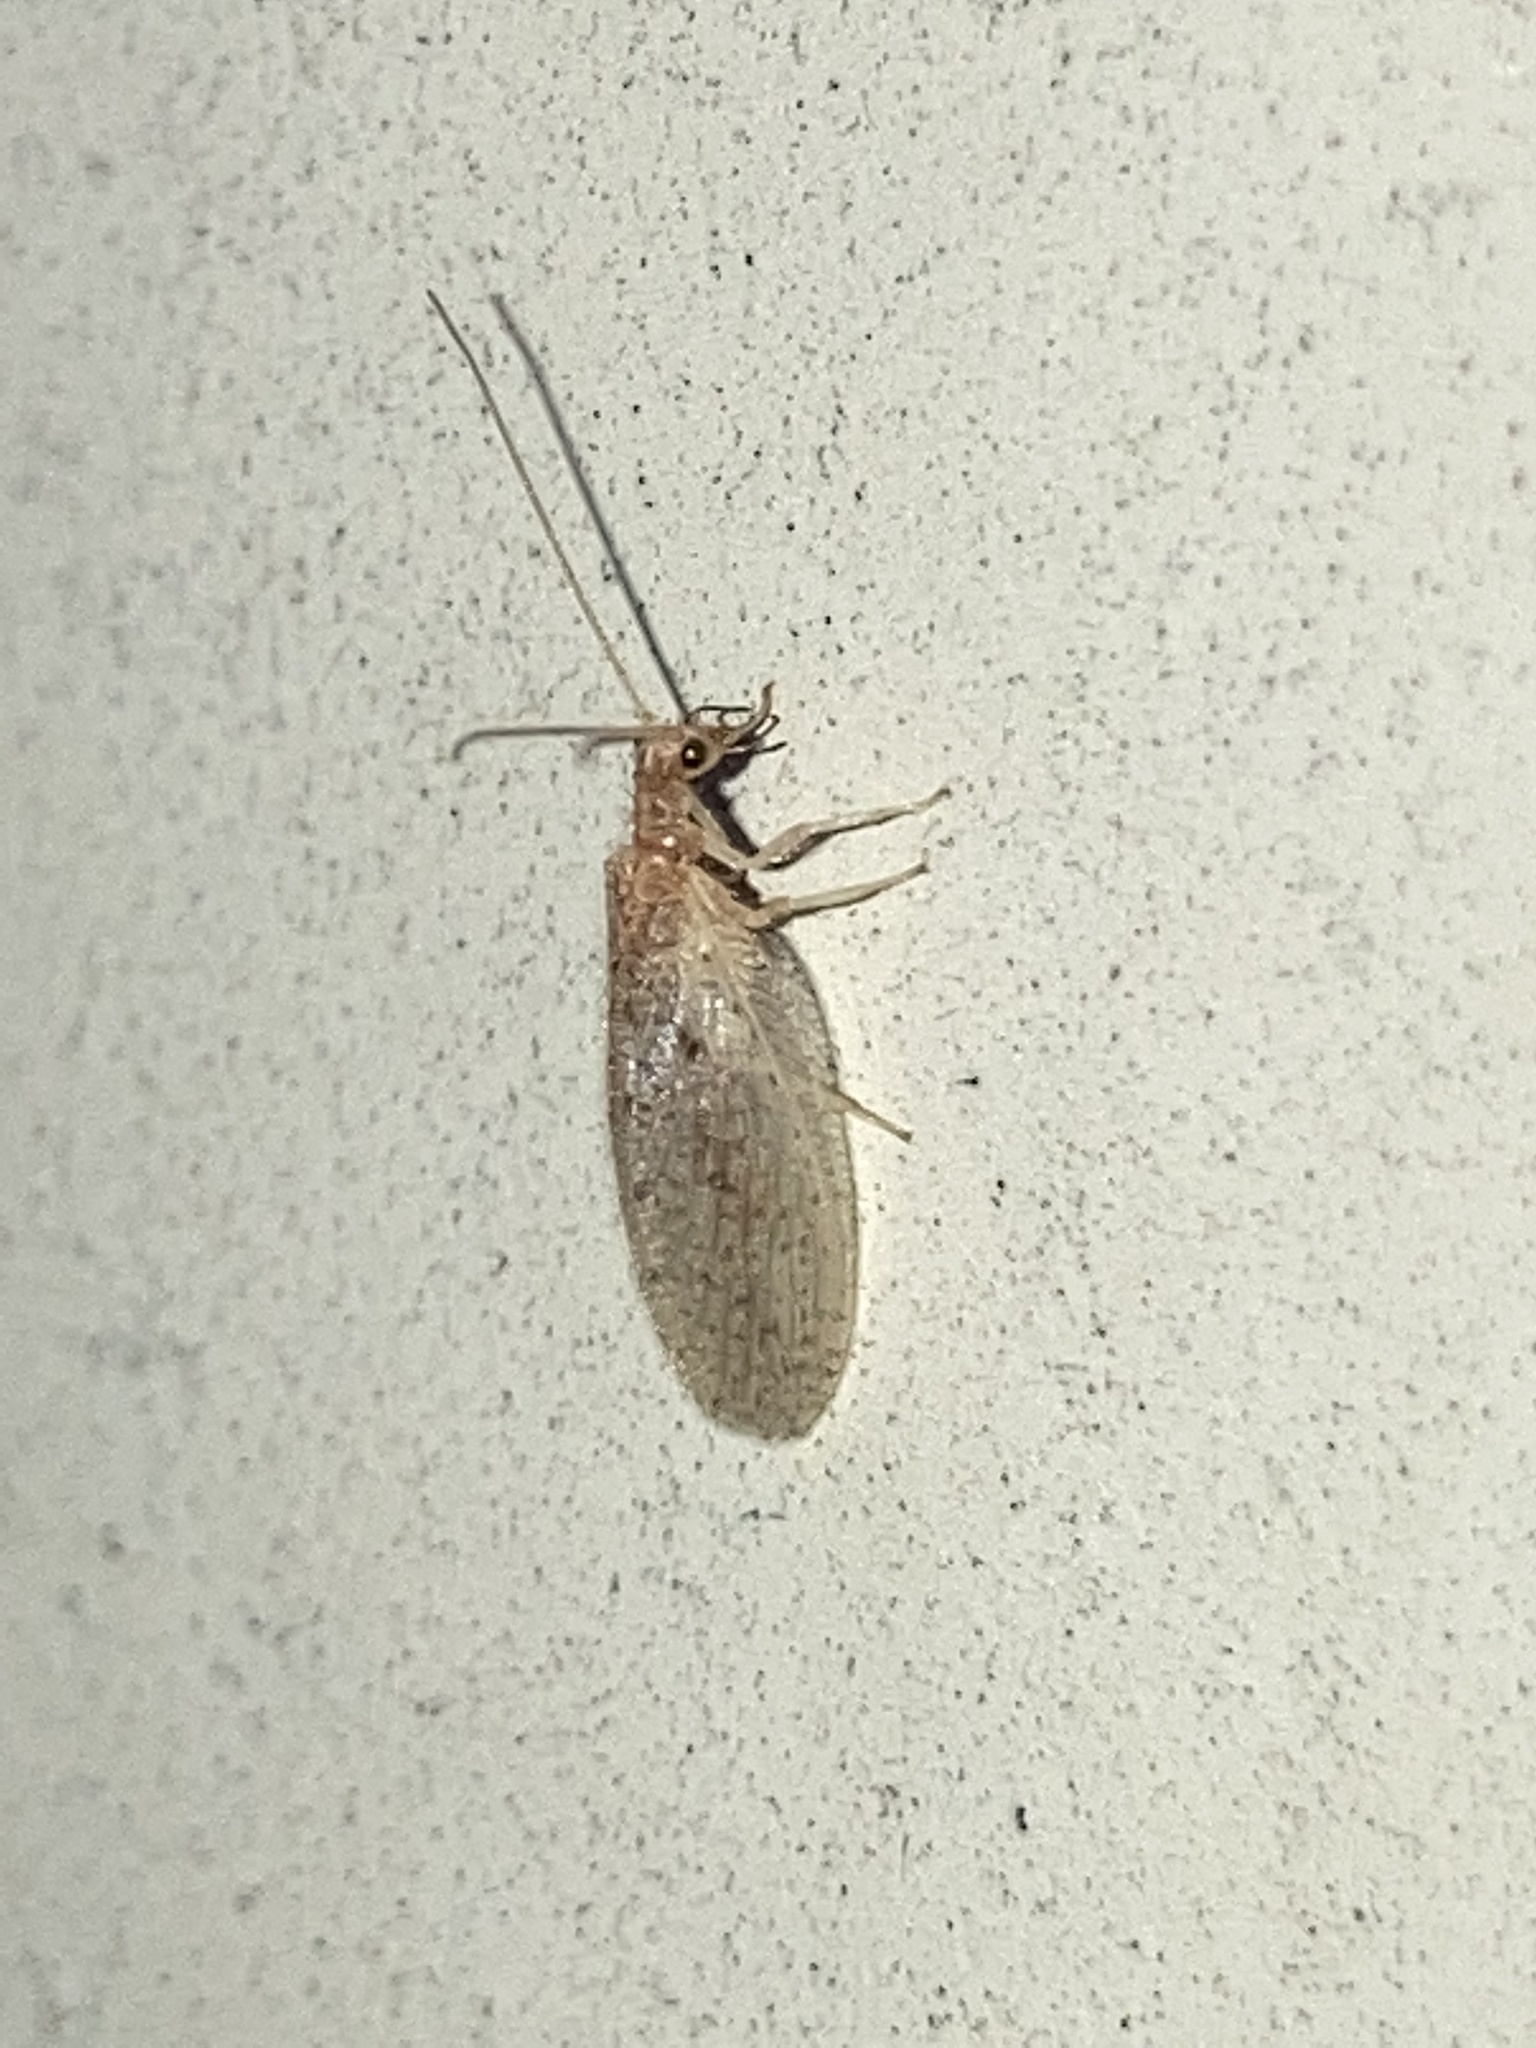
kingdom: Animalia
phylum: Arthropoda
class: Insecta
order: Neuroptera
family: Hemerobiidae
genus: Micromus
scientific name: Micromus subanticus
